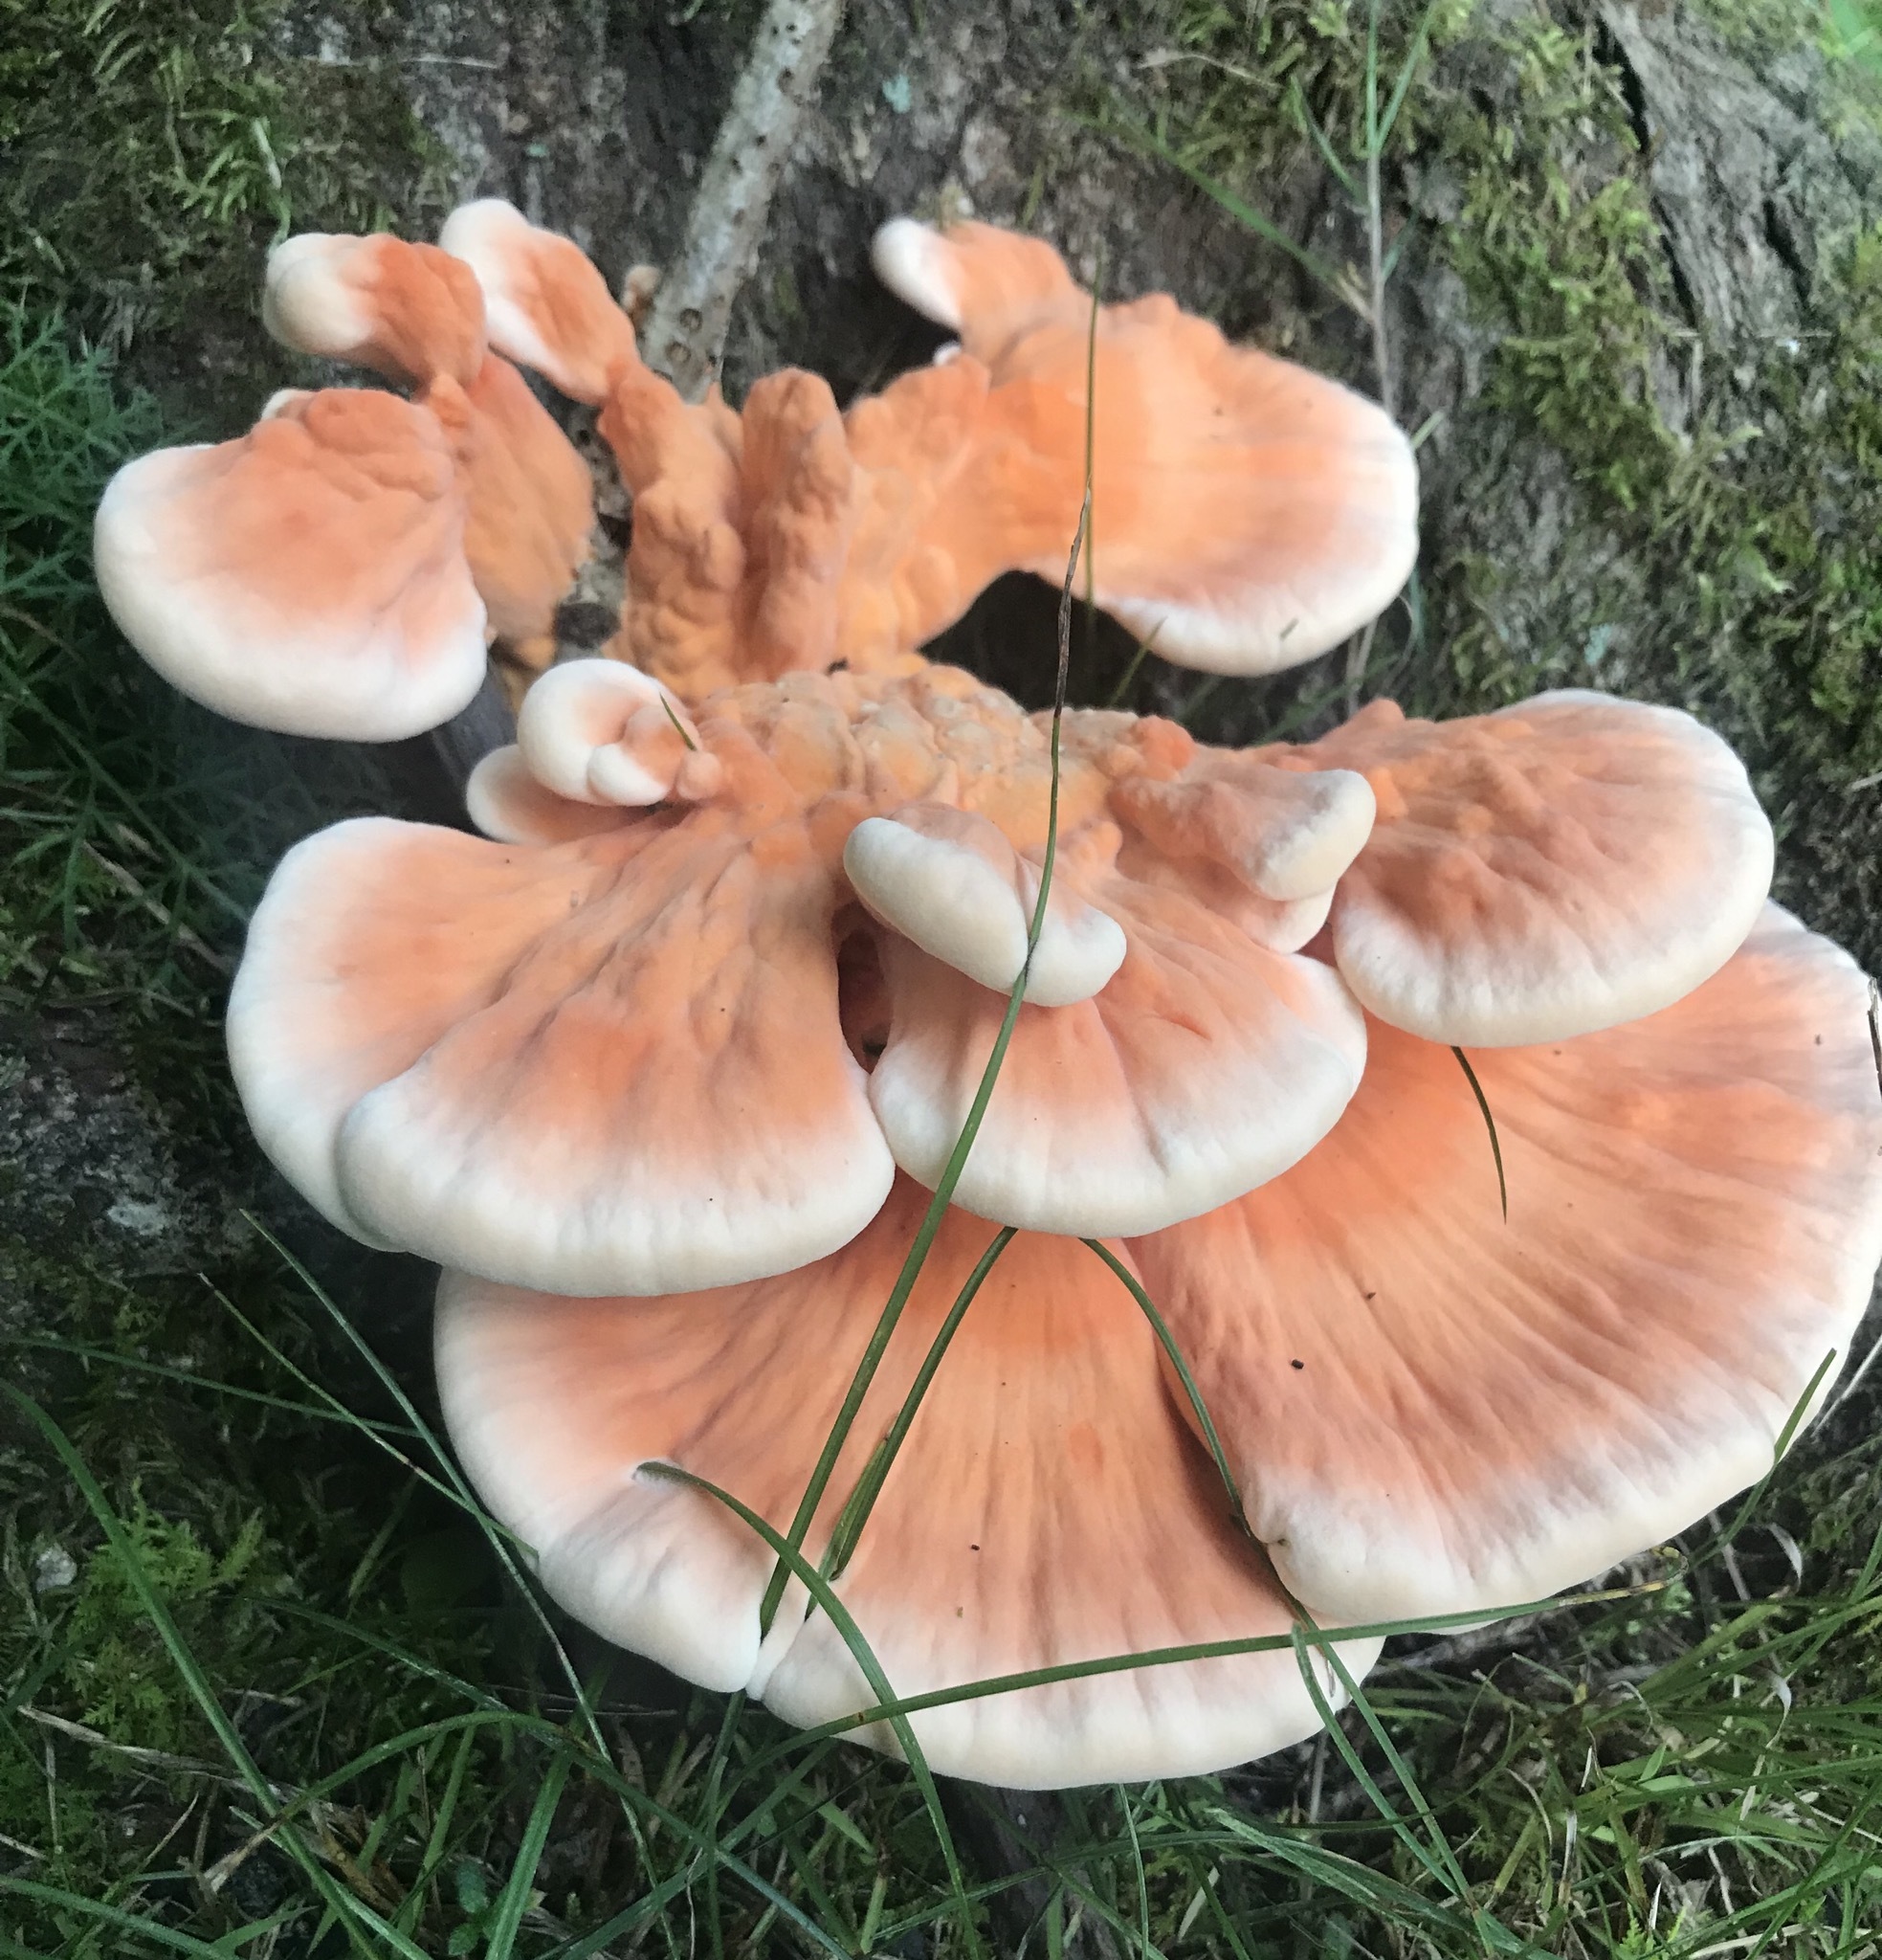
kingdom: Fungi
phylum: Basidiomycota
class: Agaricomycetes
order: Polyporales
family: Laetiporaceae
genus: Laetiporus
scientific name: Laetiporus sulphureus
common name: Chicken of the woods
